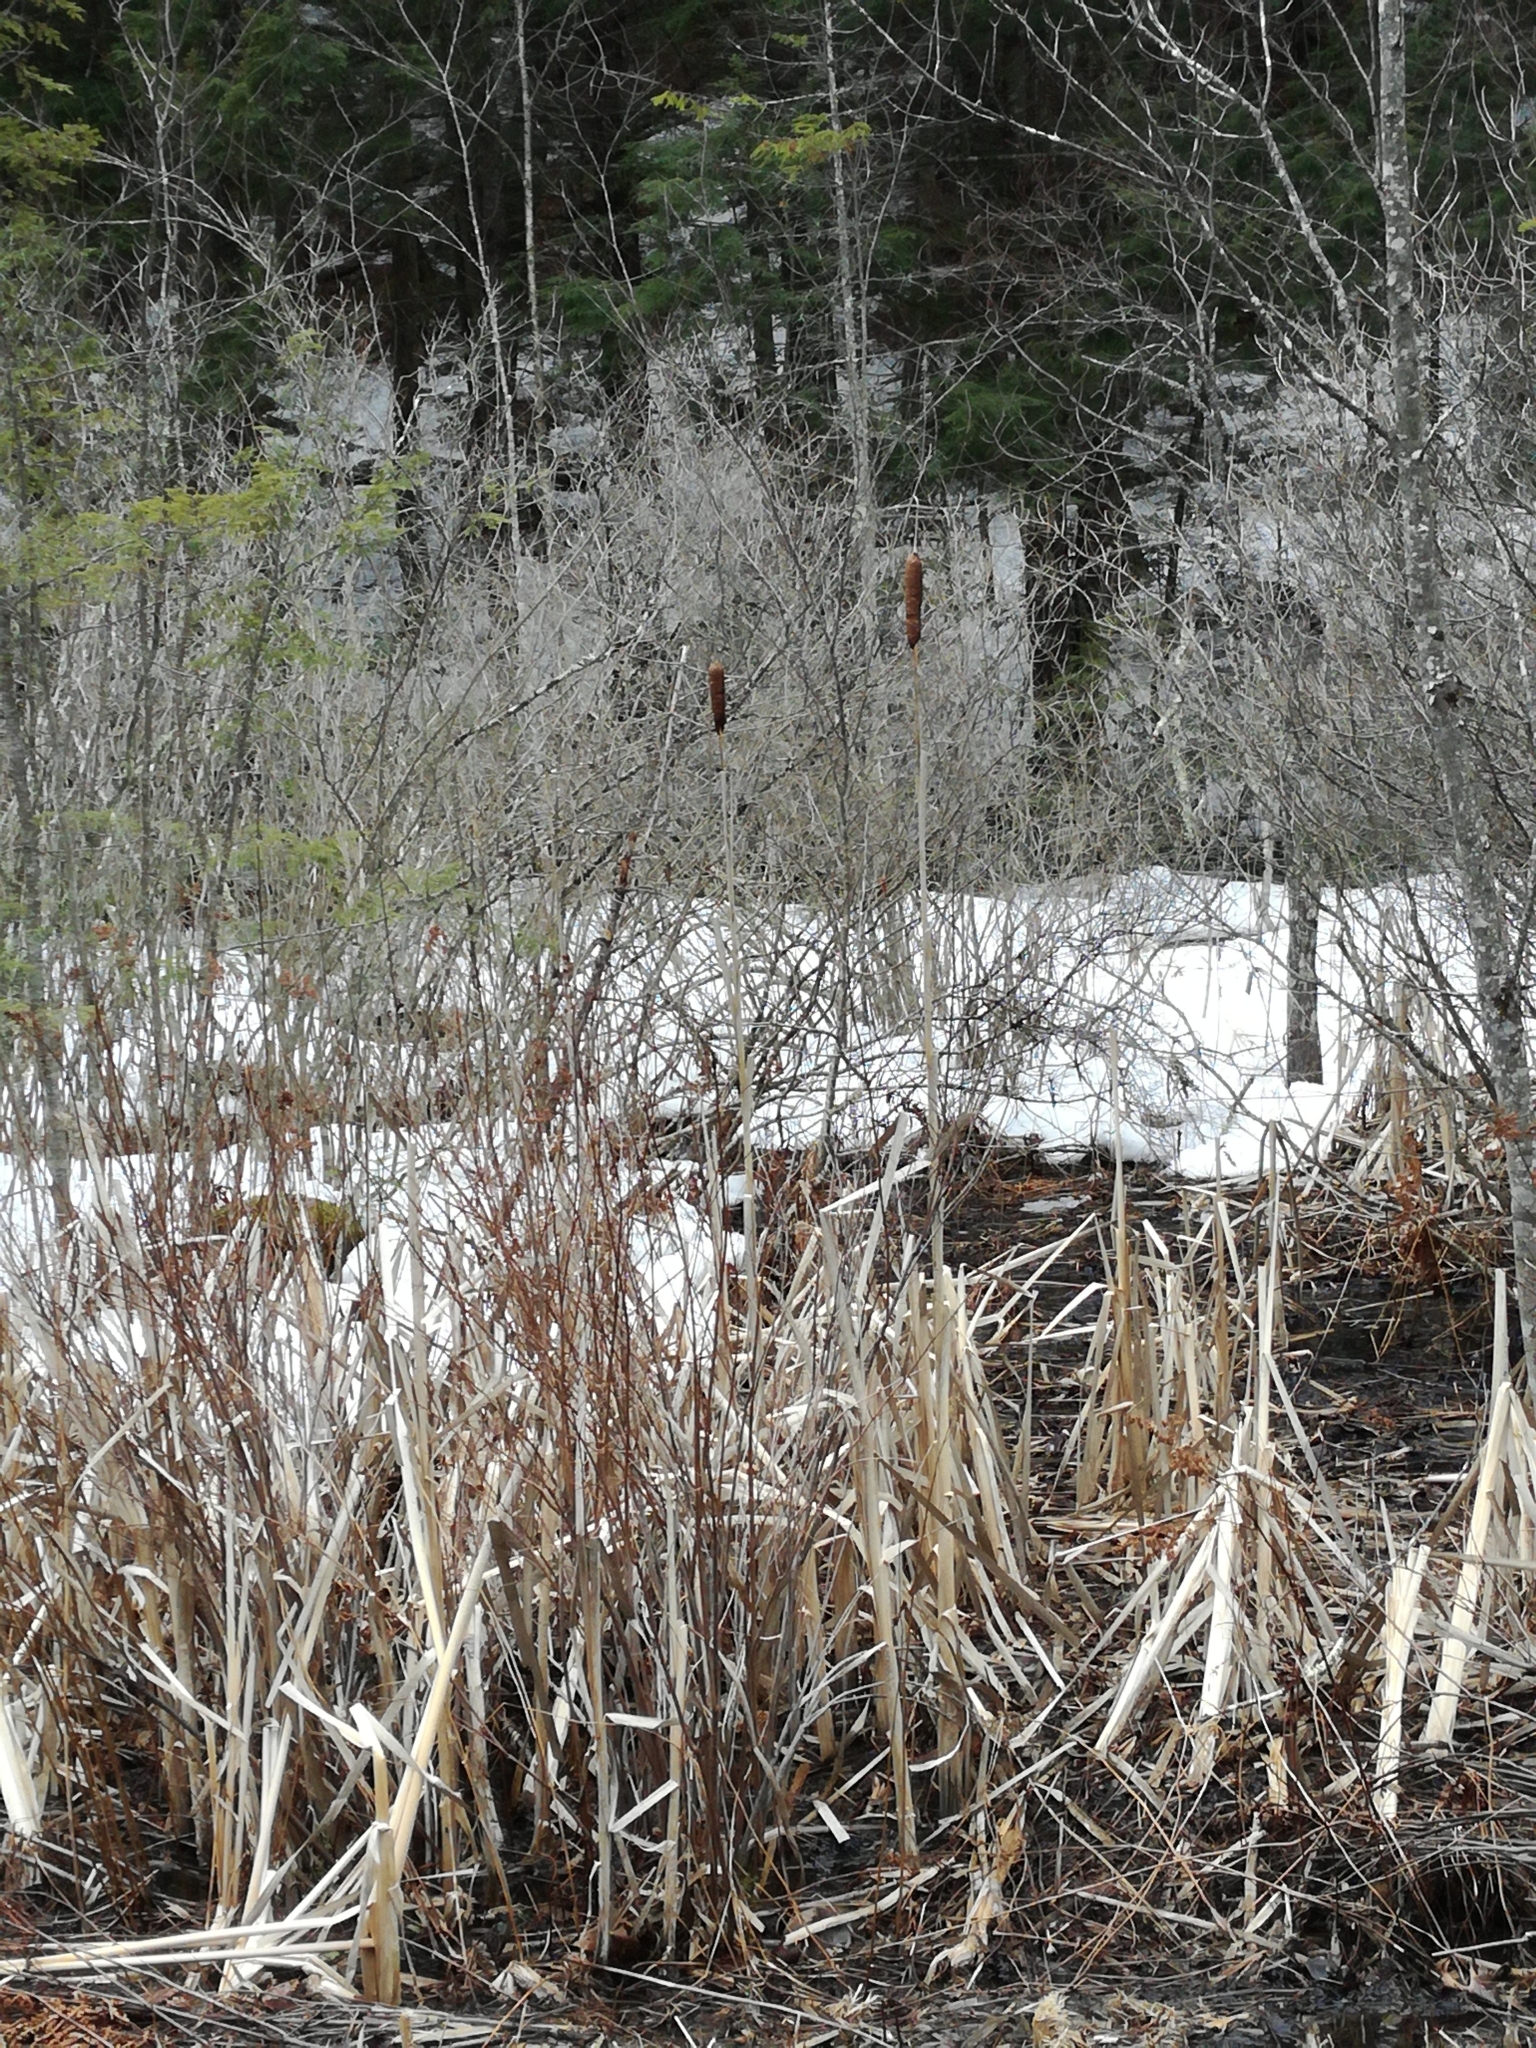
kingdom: Plantae
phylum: Tracheophyta
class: Liliopsida
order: Poales
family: Typhaceae
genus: Typha
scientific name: Typha latifolia
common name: Broadleaf cattail
